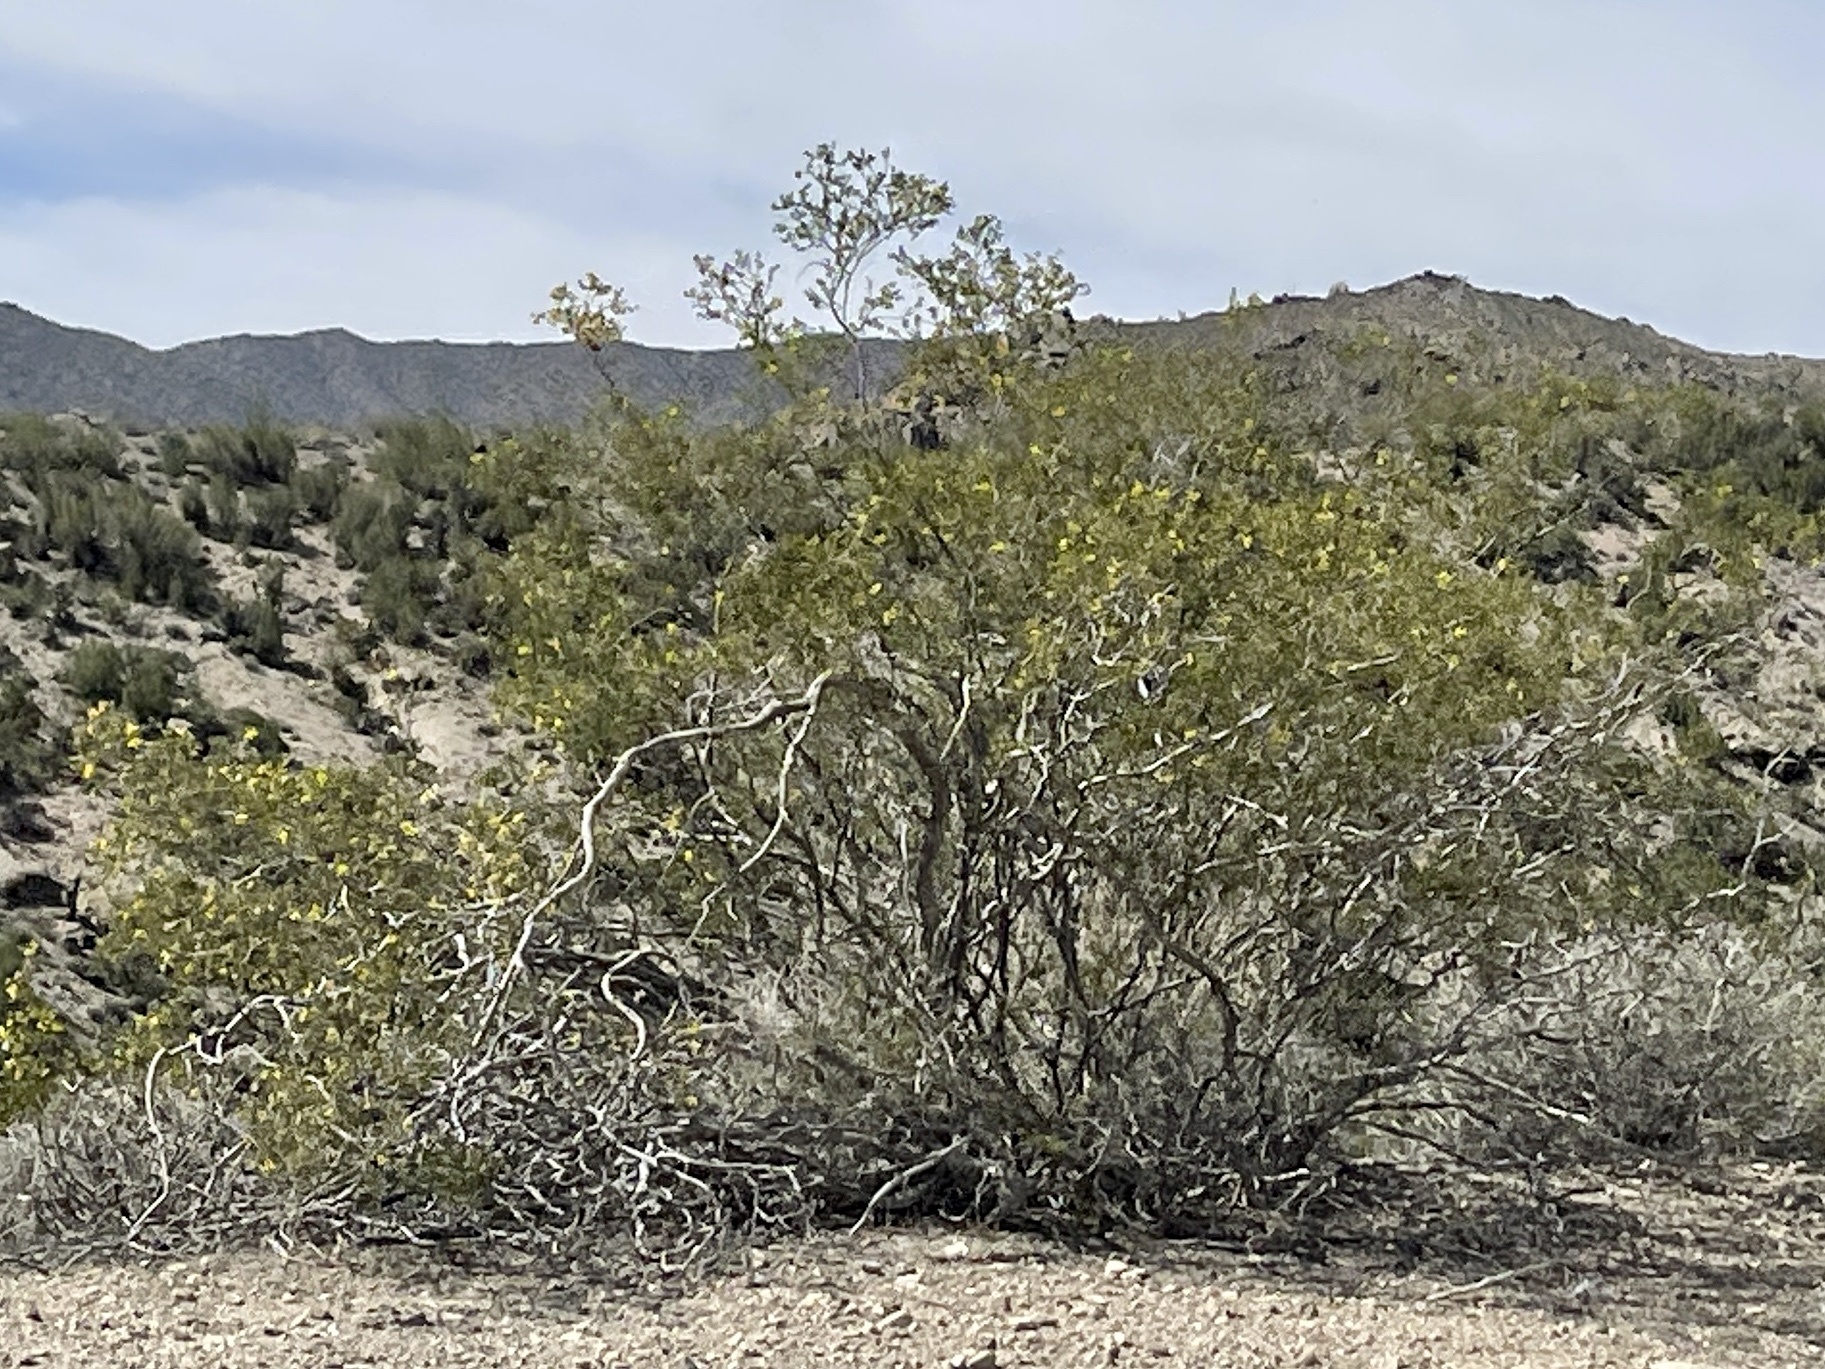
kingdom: Plantae
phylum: Tracheophyta
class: Magnoliopsida
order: Zygophyllales
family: Zygophyllaceae
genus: Larrea
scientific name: Larrea tridentata
